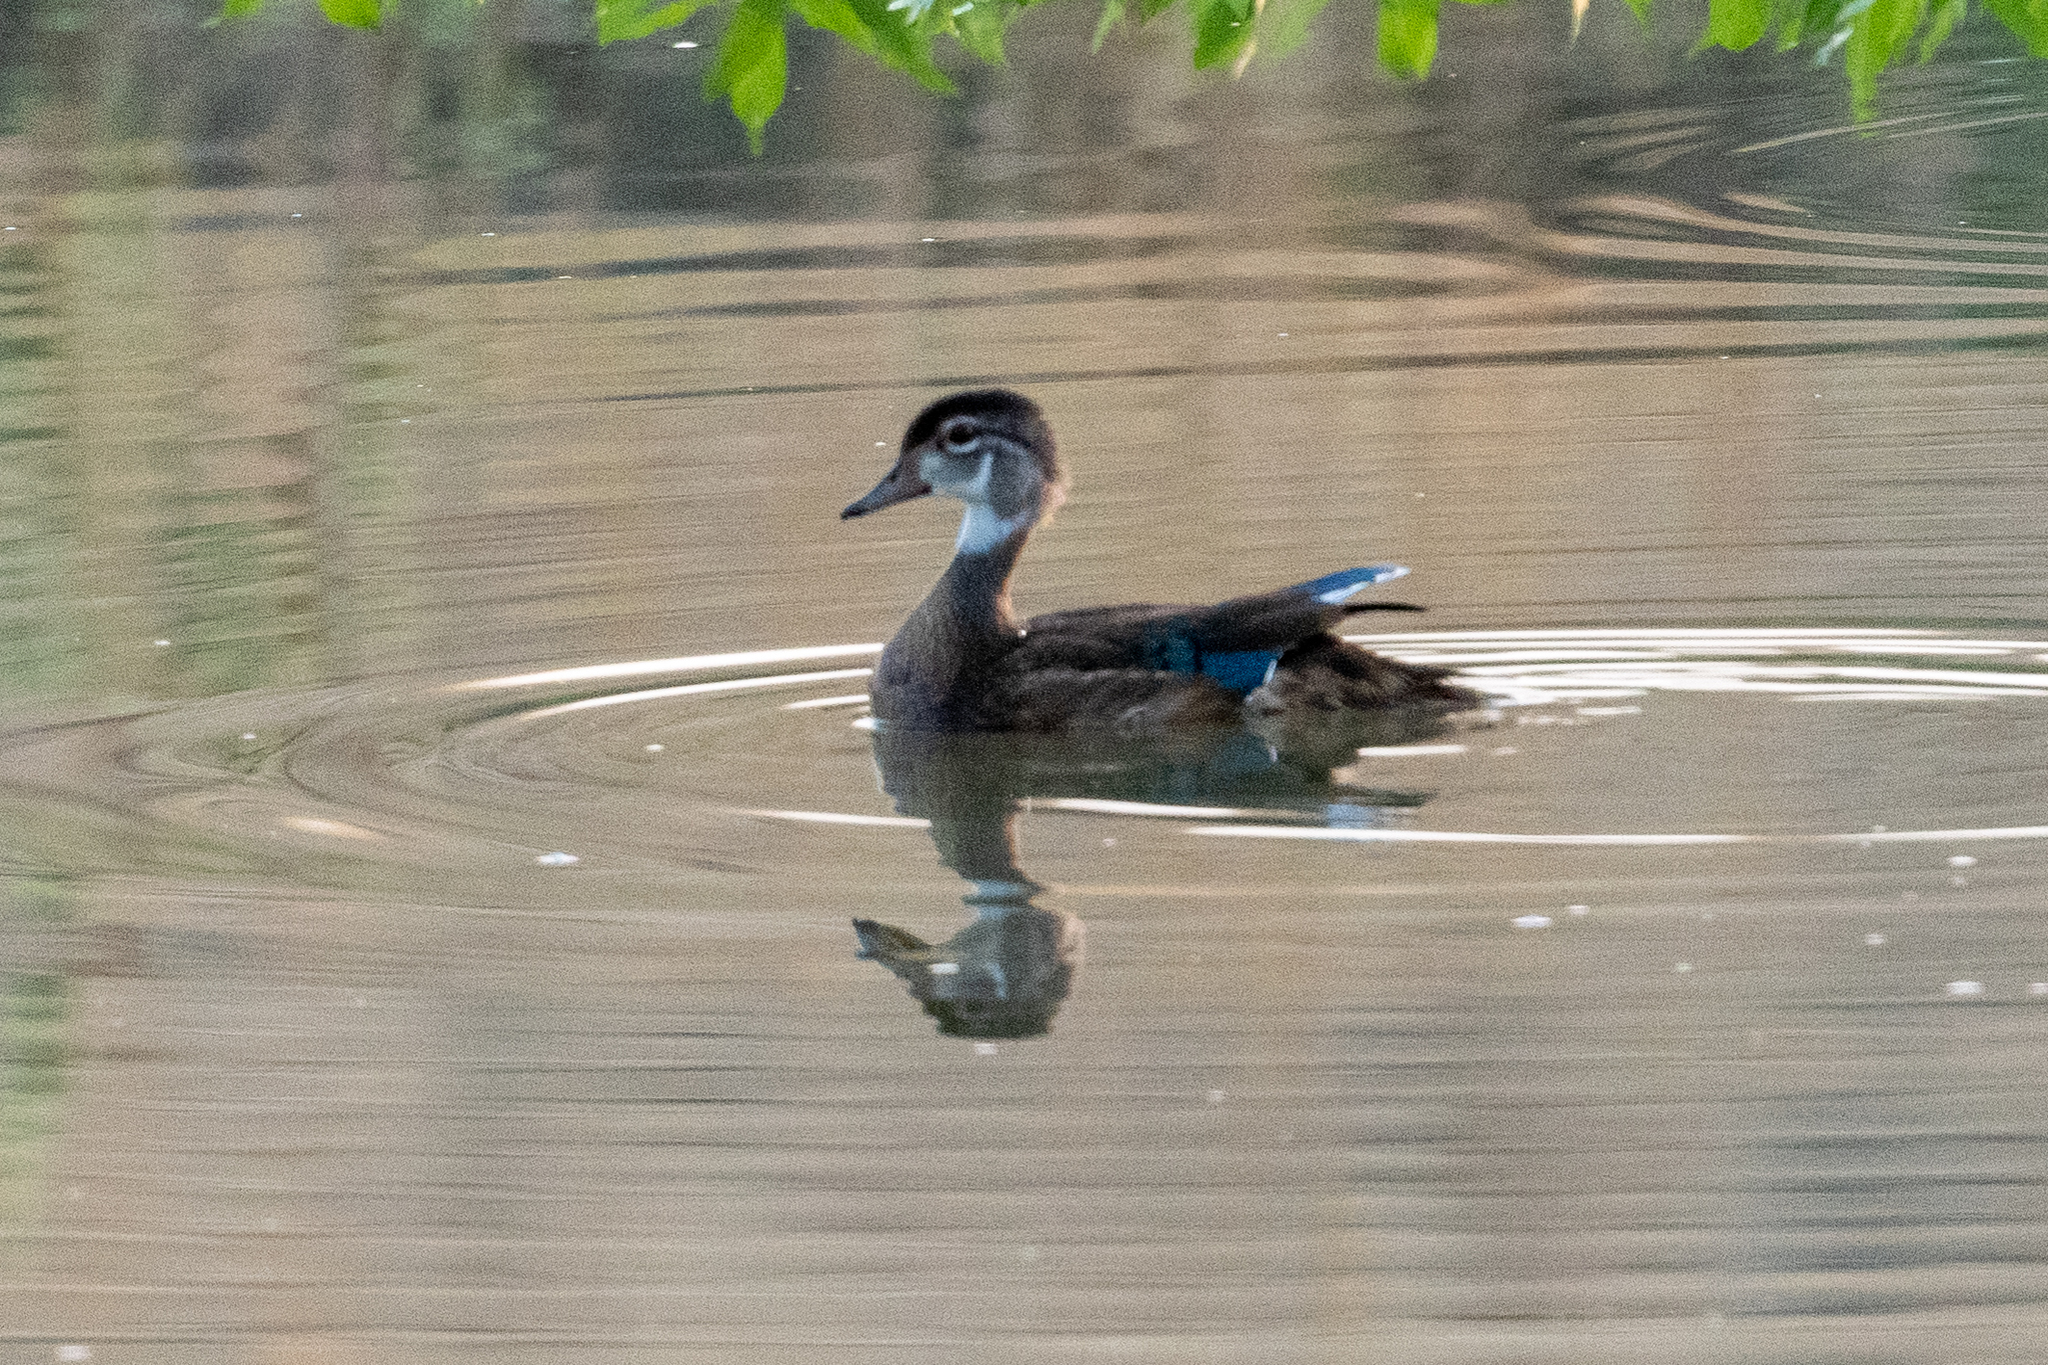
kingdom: Animalia
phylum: Chordata
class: Aves
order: Anseriformes
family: Anatidae
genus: Aix
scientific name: Aix sponsa
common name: Wood duck
